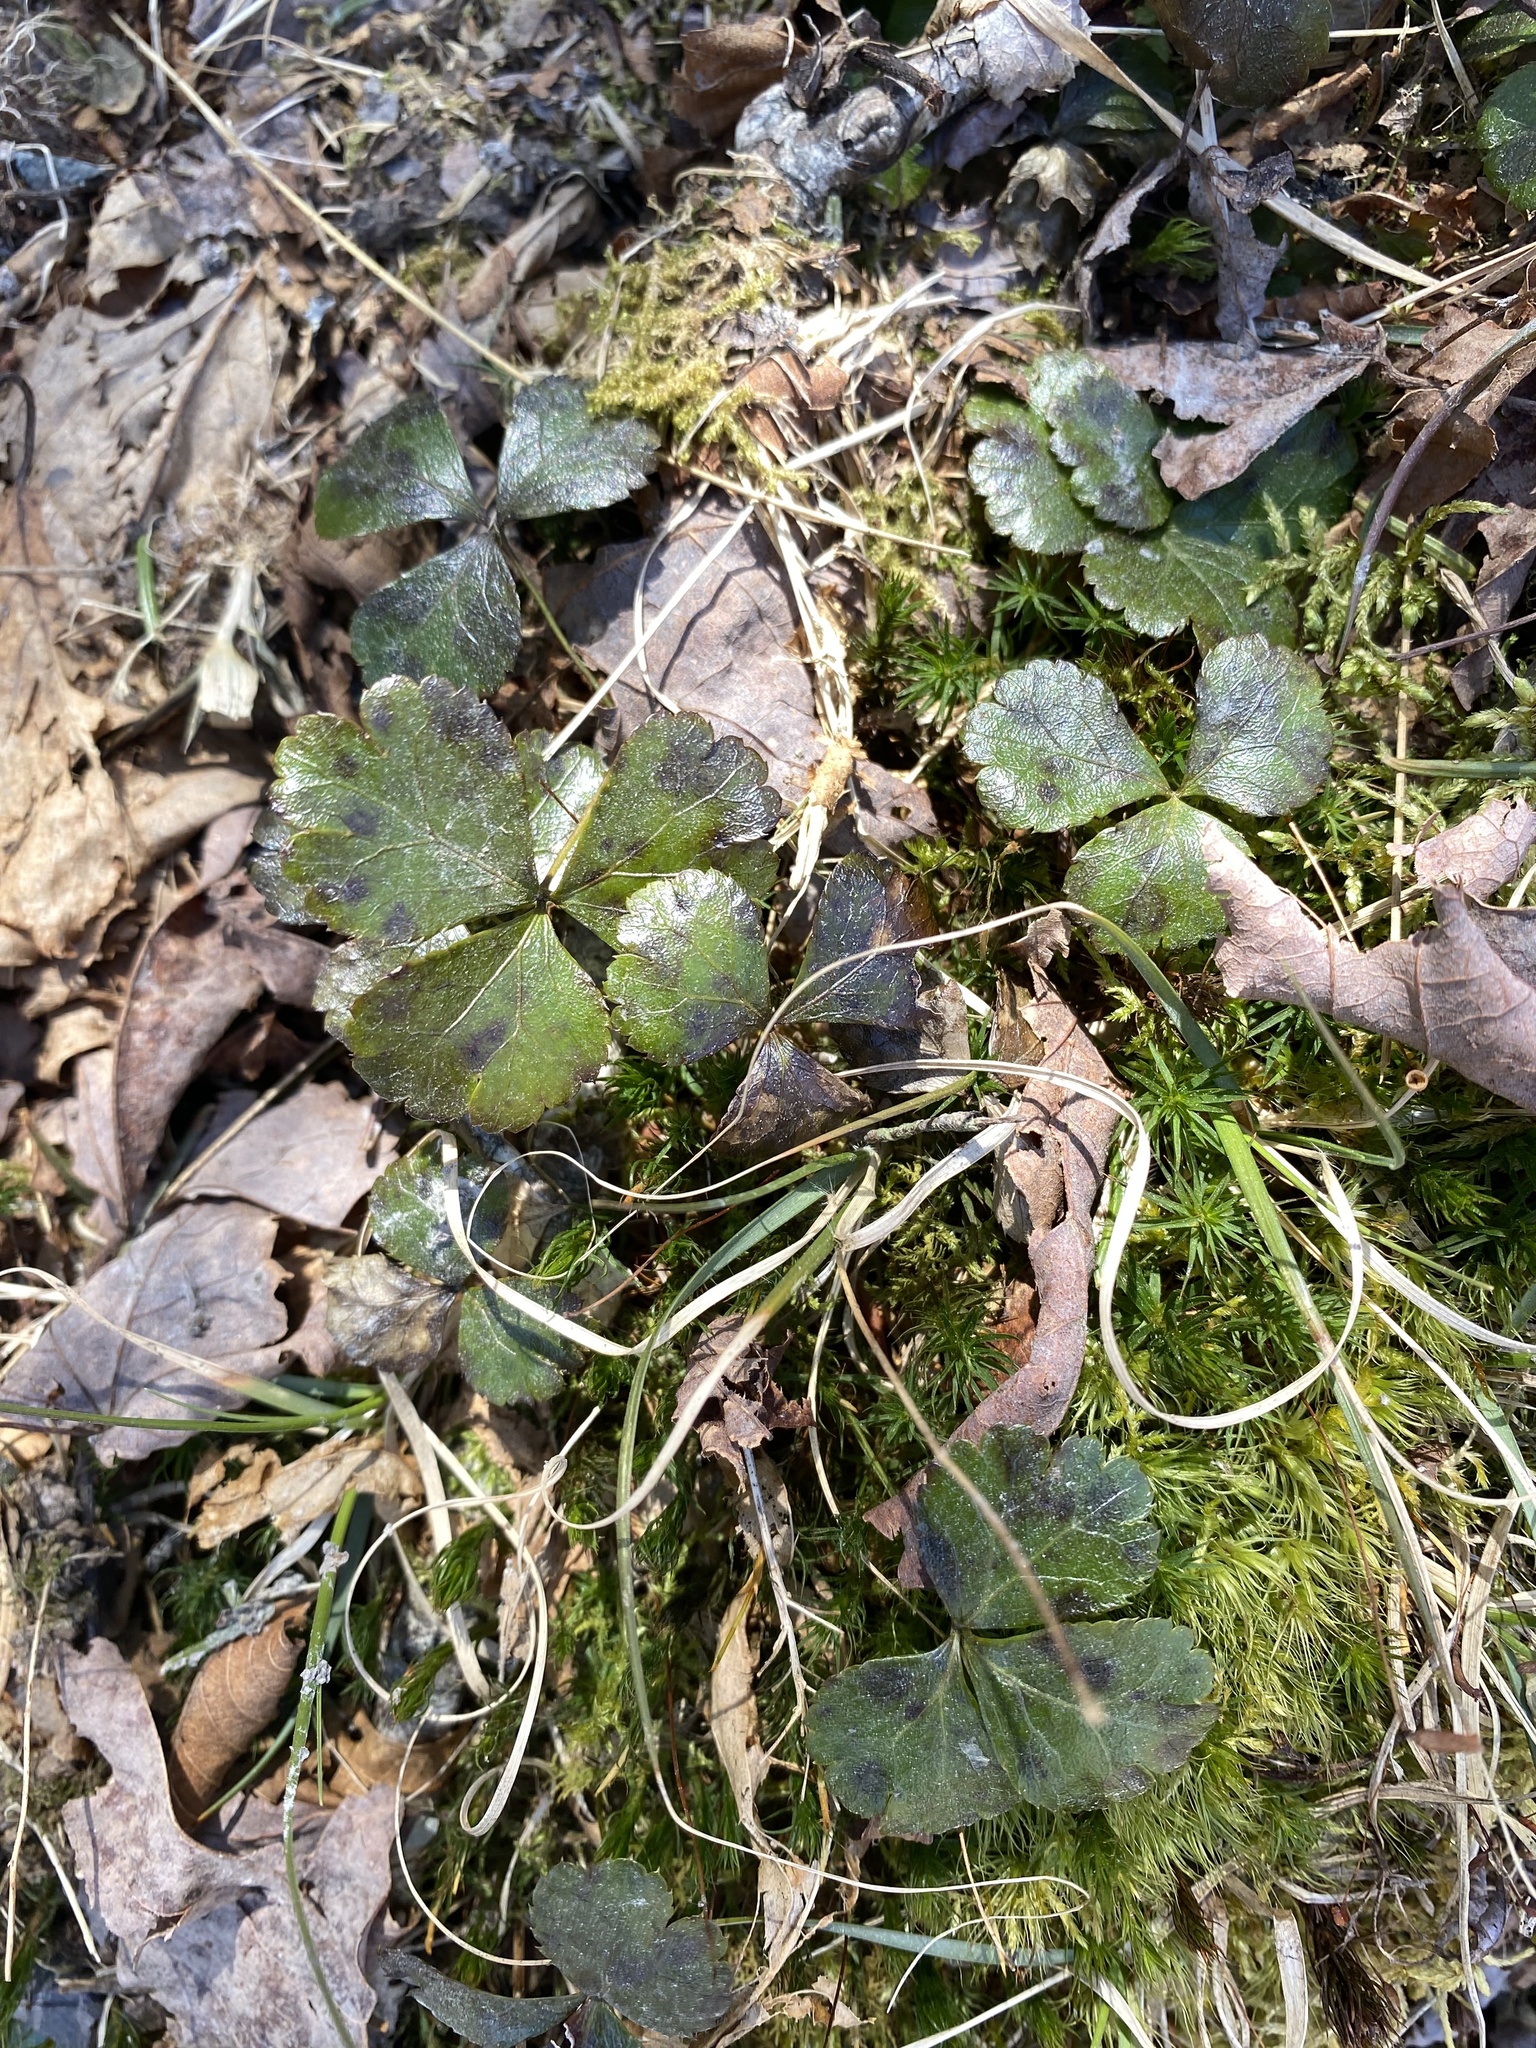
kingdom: Plantae
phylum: Tracheophyta
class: Magnoliopsida
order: Ranunculales
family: Ranunculaceae
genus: Coptis
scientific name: Coptis trifolia
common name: Canker-root
